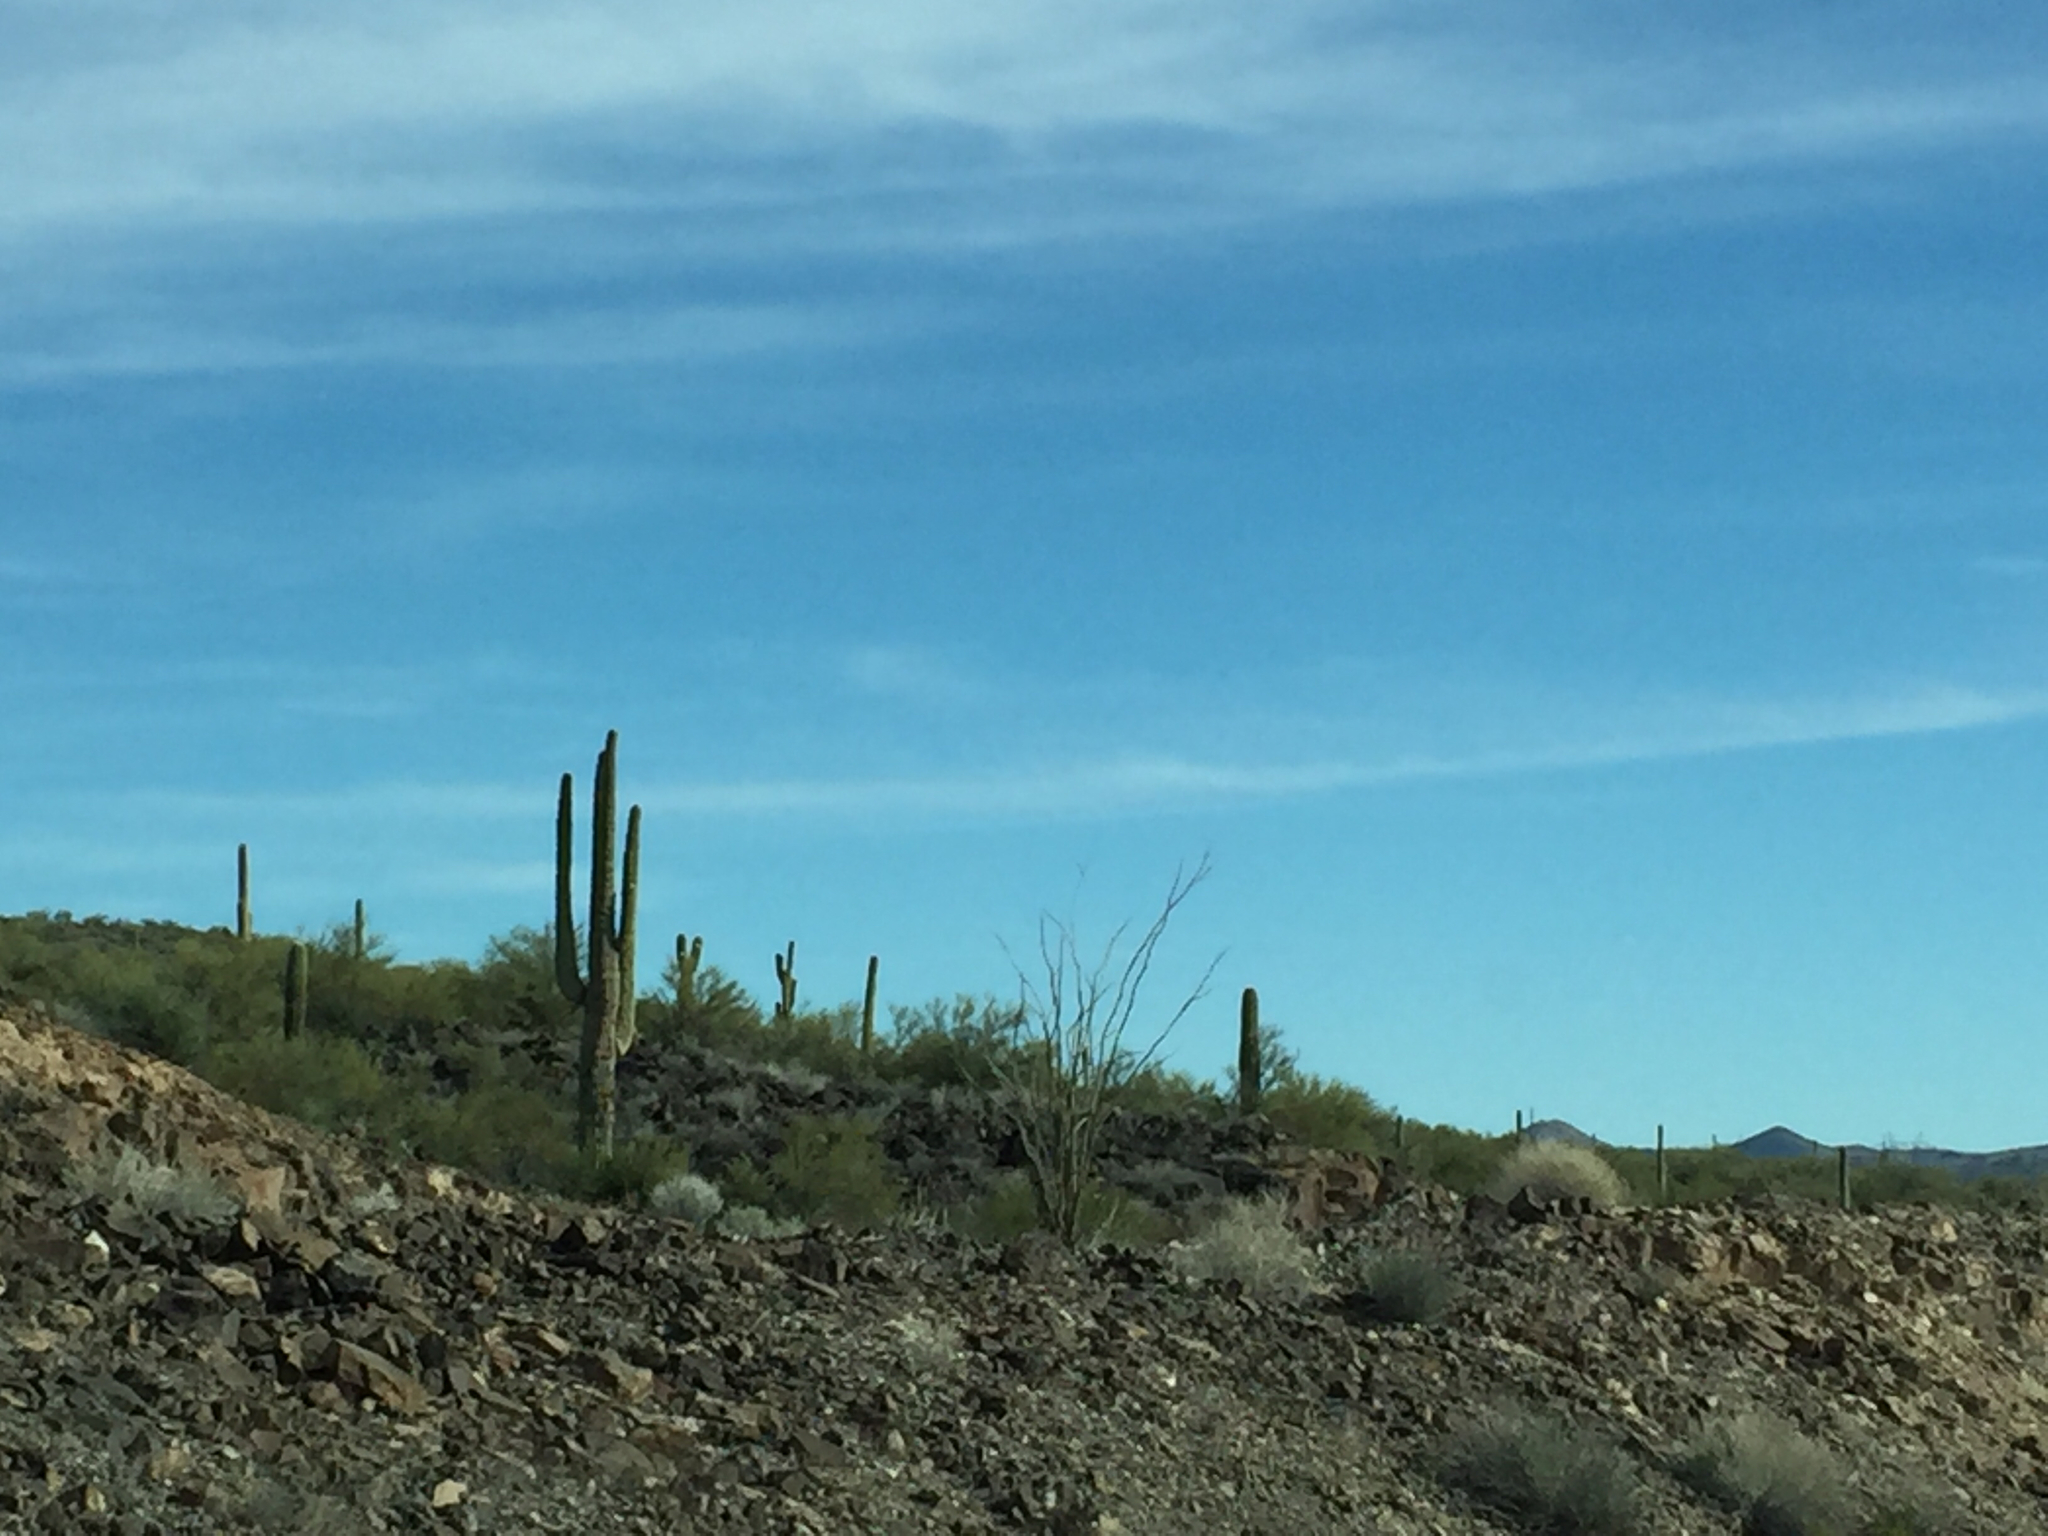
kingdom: Plantae
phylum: Tracheophyta
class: Magnoliopsida
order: Caryophyllales
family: Cactaceae
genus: Carnegiea
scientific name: Carnegiea gigantea
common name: Saguaro
